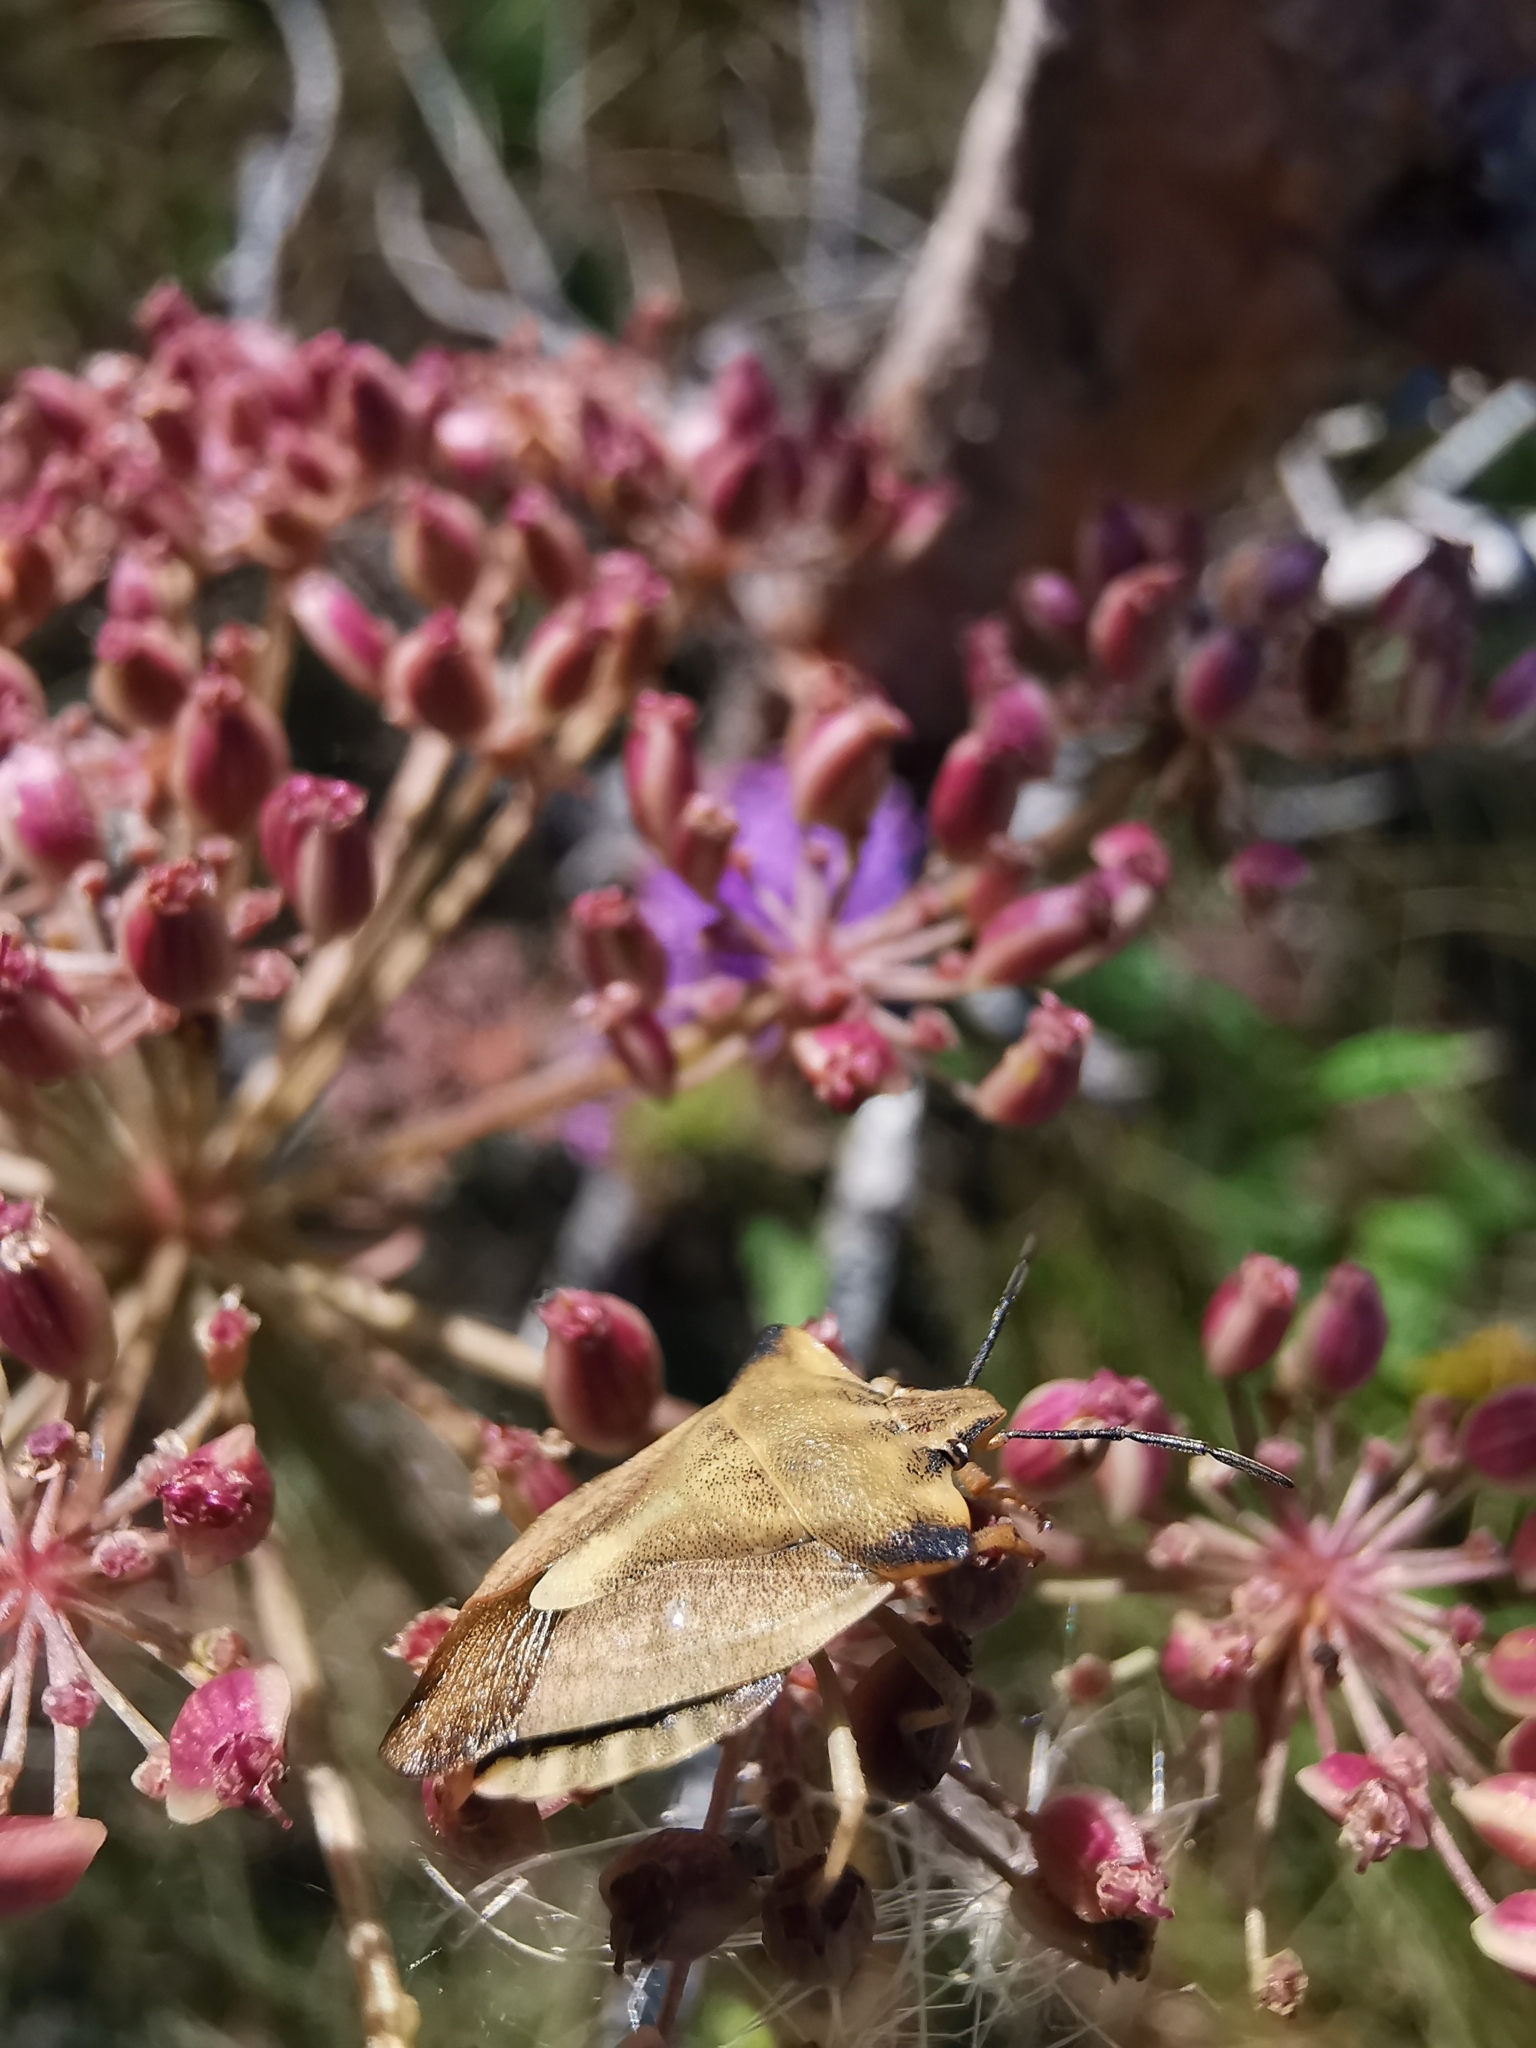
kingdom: Animalia
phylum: Arthropoda
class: Insecta
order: Hemiptera
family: Pentatomidae
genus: Carpocoris
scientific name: Carpocoris fuscispinus
